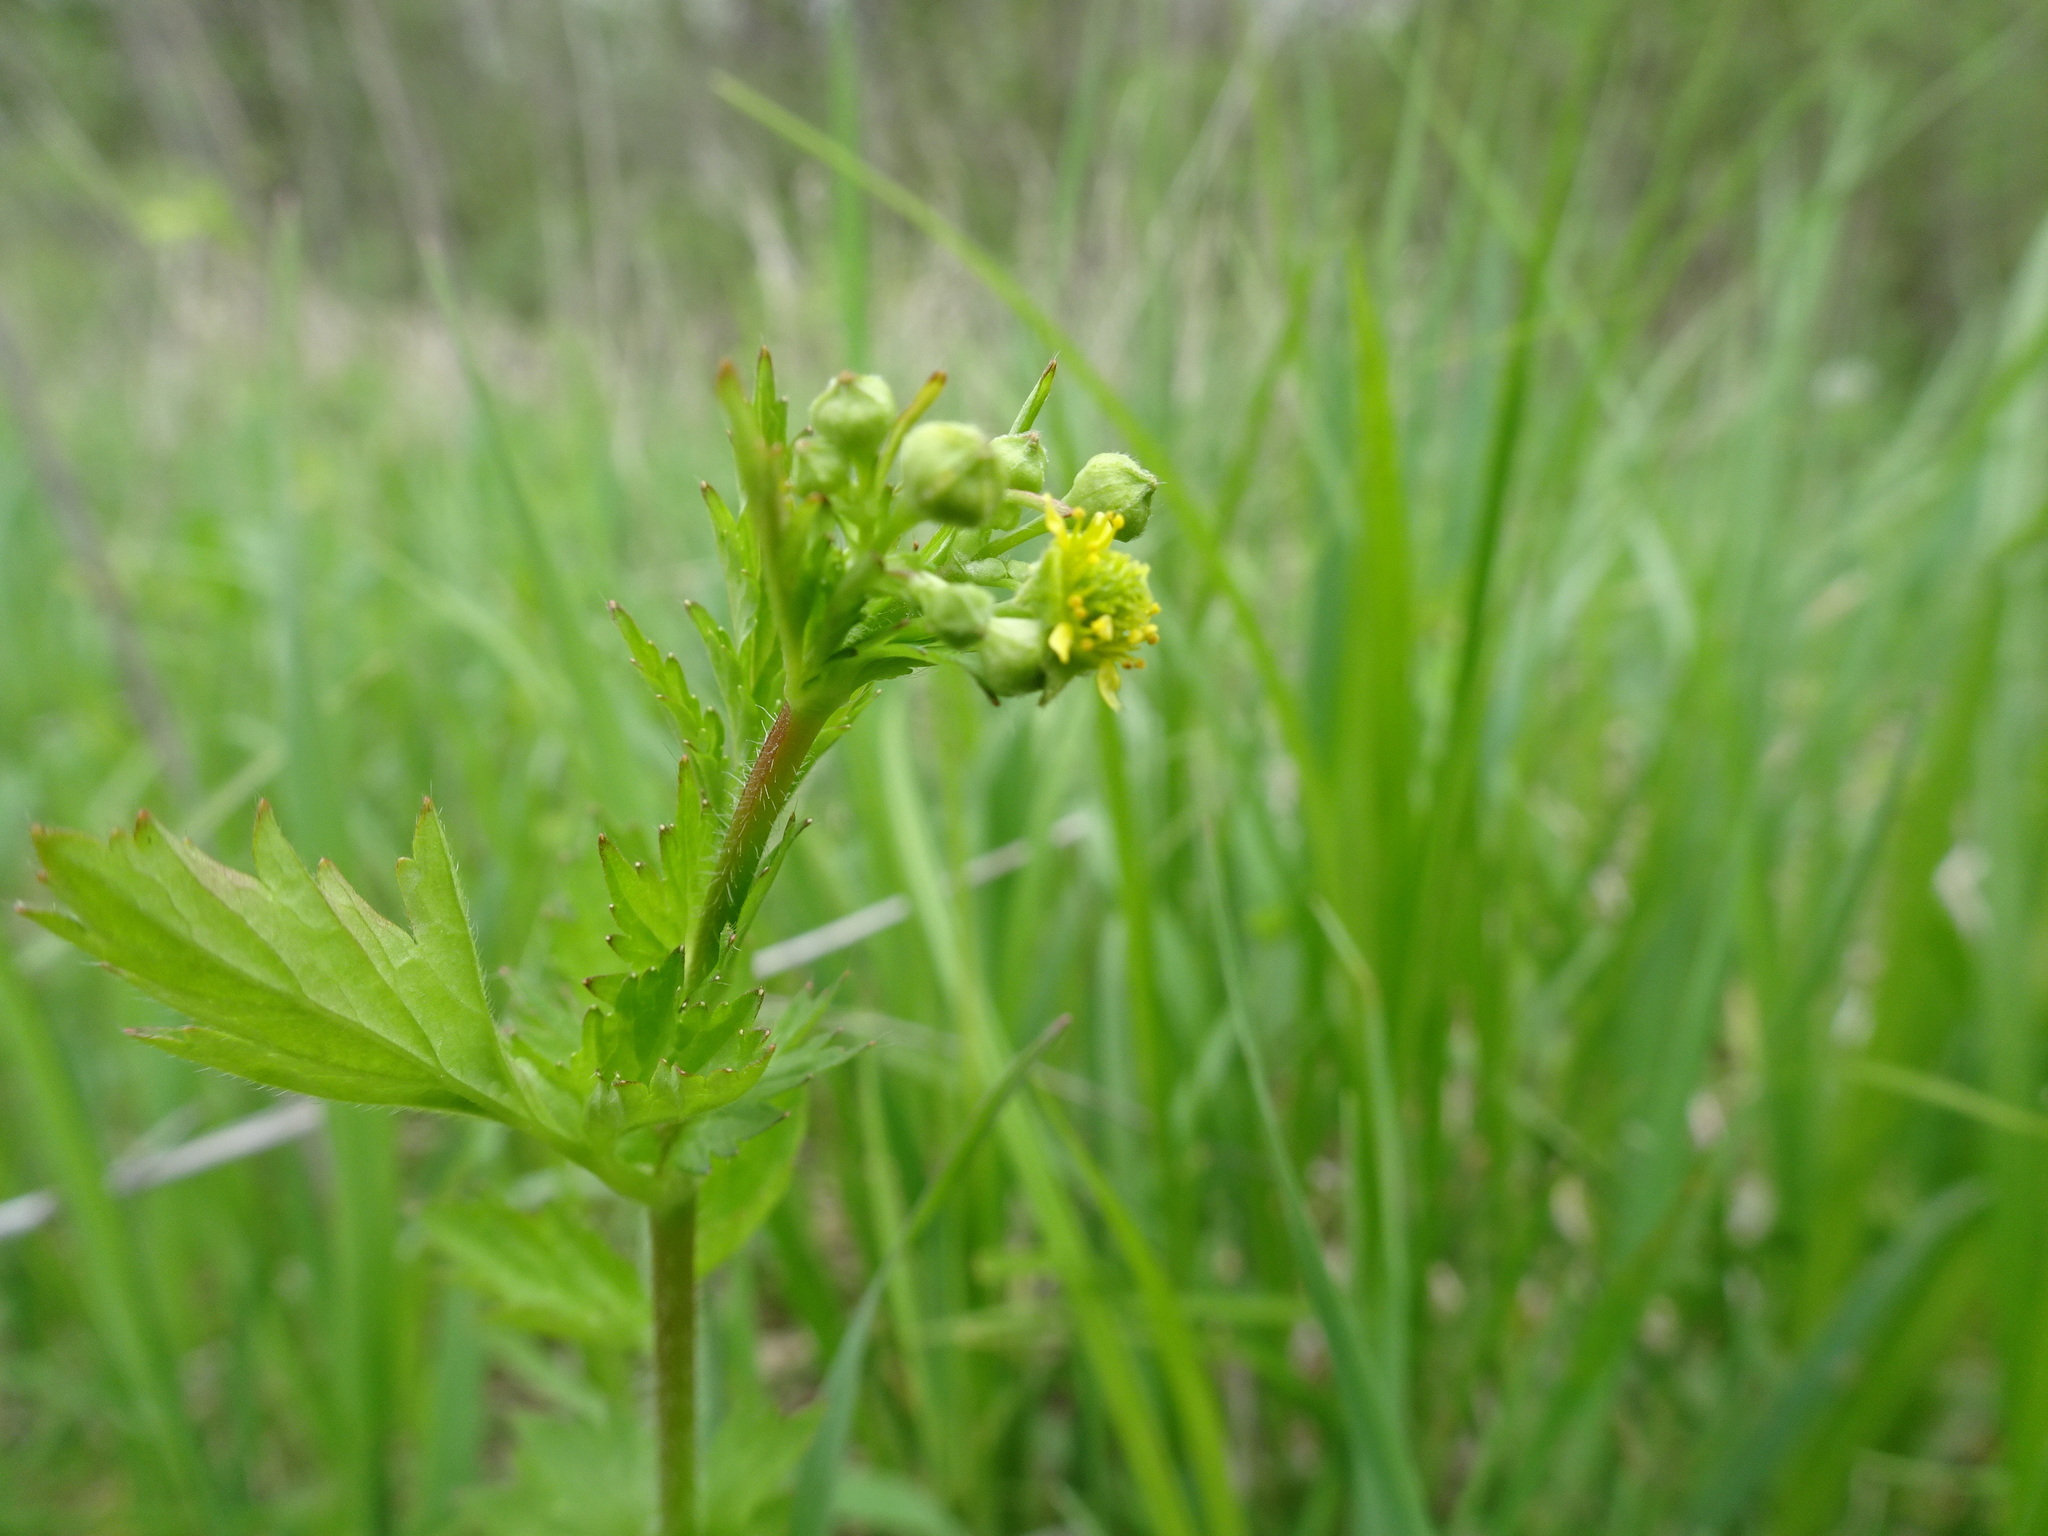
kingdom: Plantae
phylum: Tracheophyta
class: Magnoliopsida
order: Rosales
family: Rosaceae
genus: Geum
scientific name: Geum vernum
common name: Spring avens
